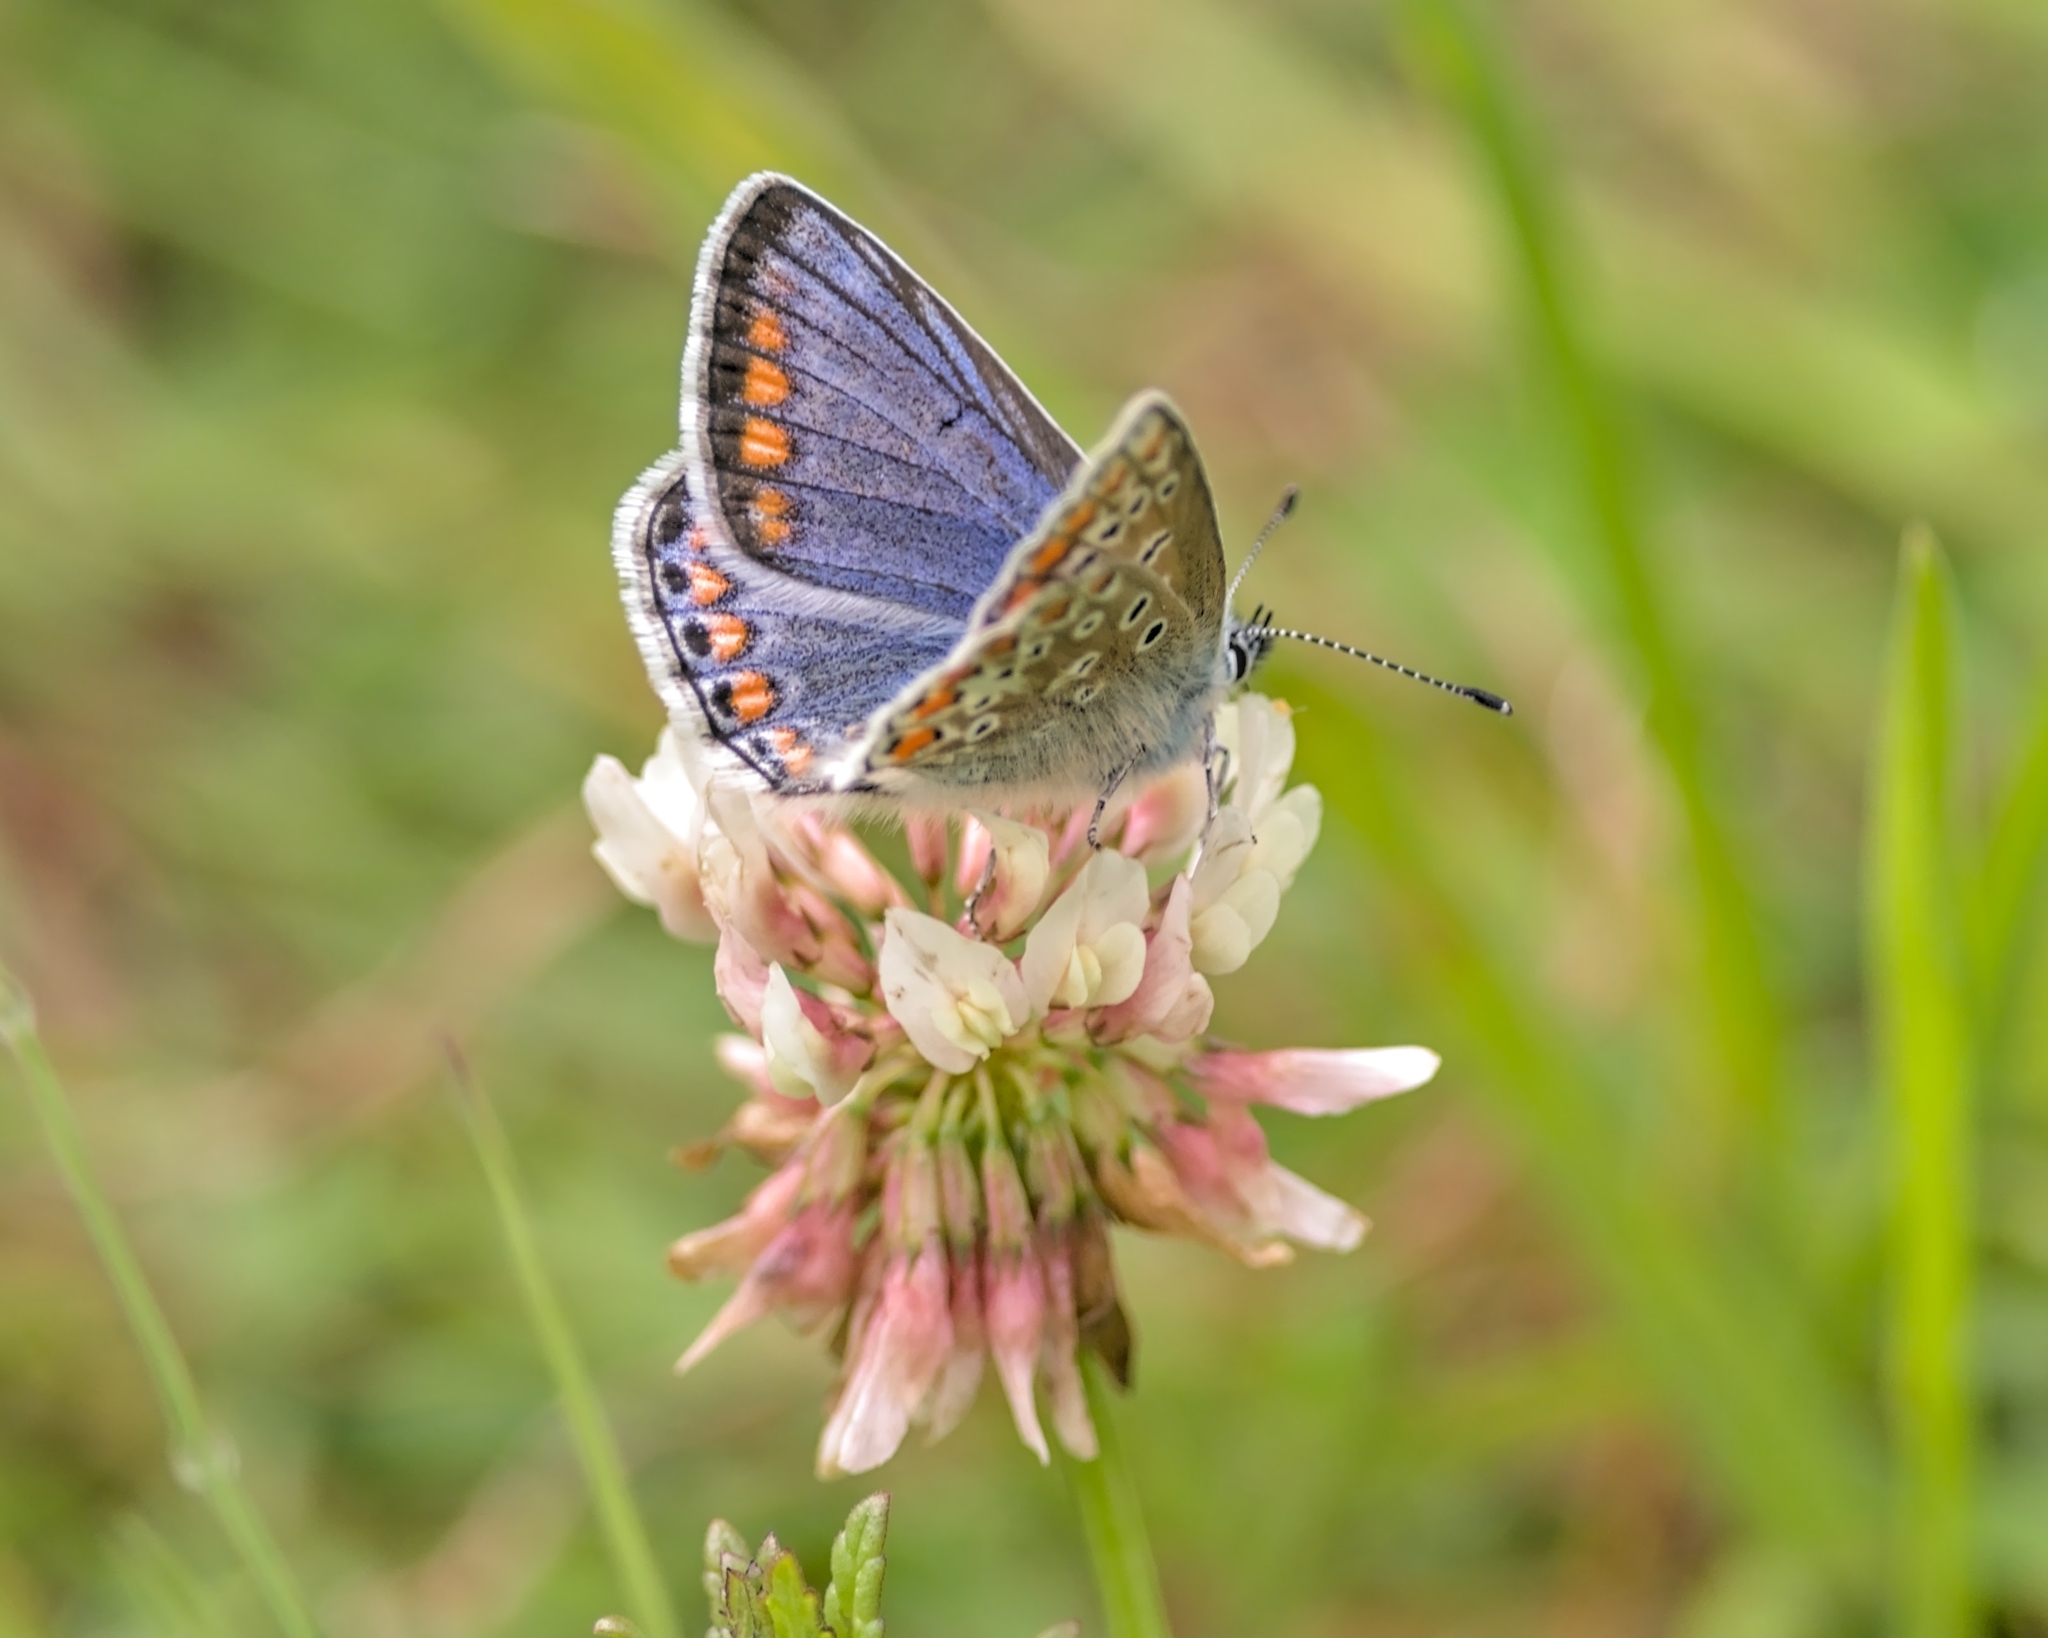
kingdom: Animalia
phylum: Arthropoda
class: Insecta
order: Lepidoptera
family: Lycaenidae
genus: Polyommatus
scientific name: Polyommatus icarus
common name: Common blue
